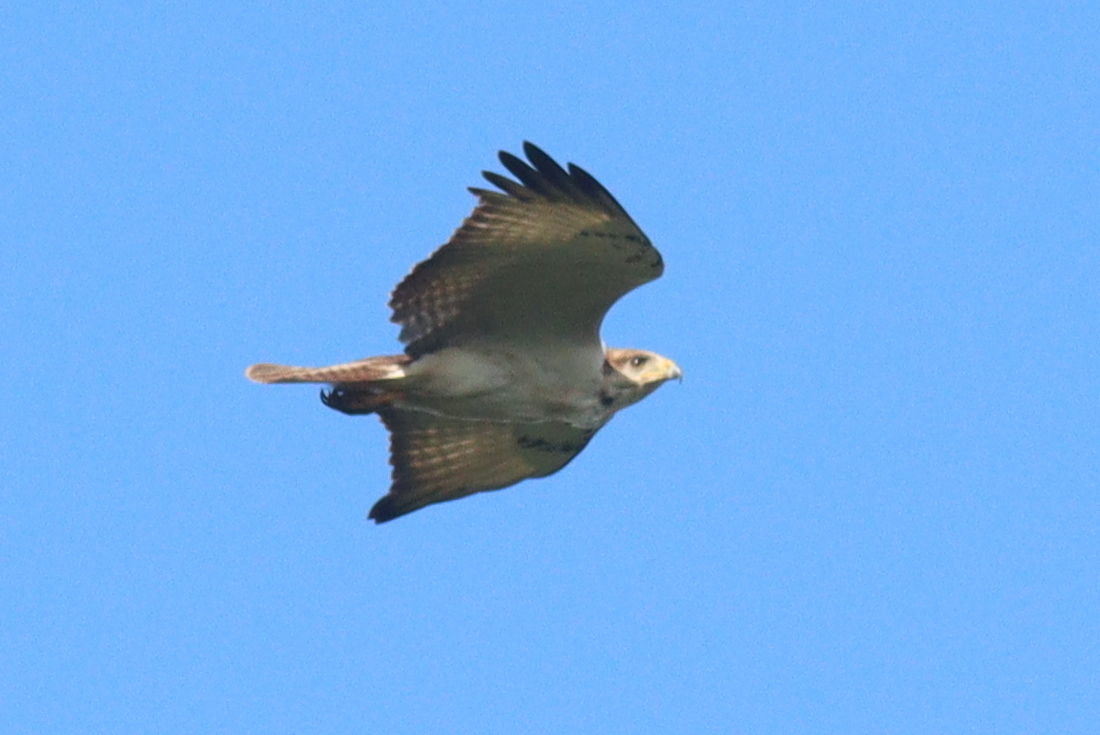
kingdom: Animalia
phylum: Chordata
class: Aves
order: Accipitriformes
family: Accipitridae
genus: Buteo
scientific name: Buteo augur
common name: Augur buzzard
